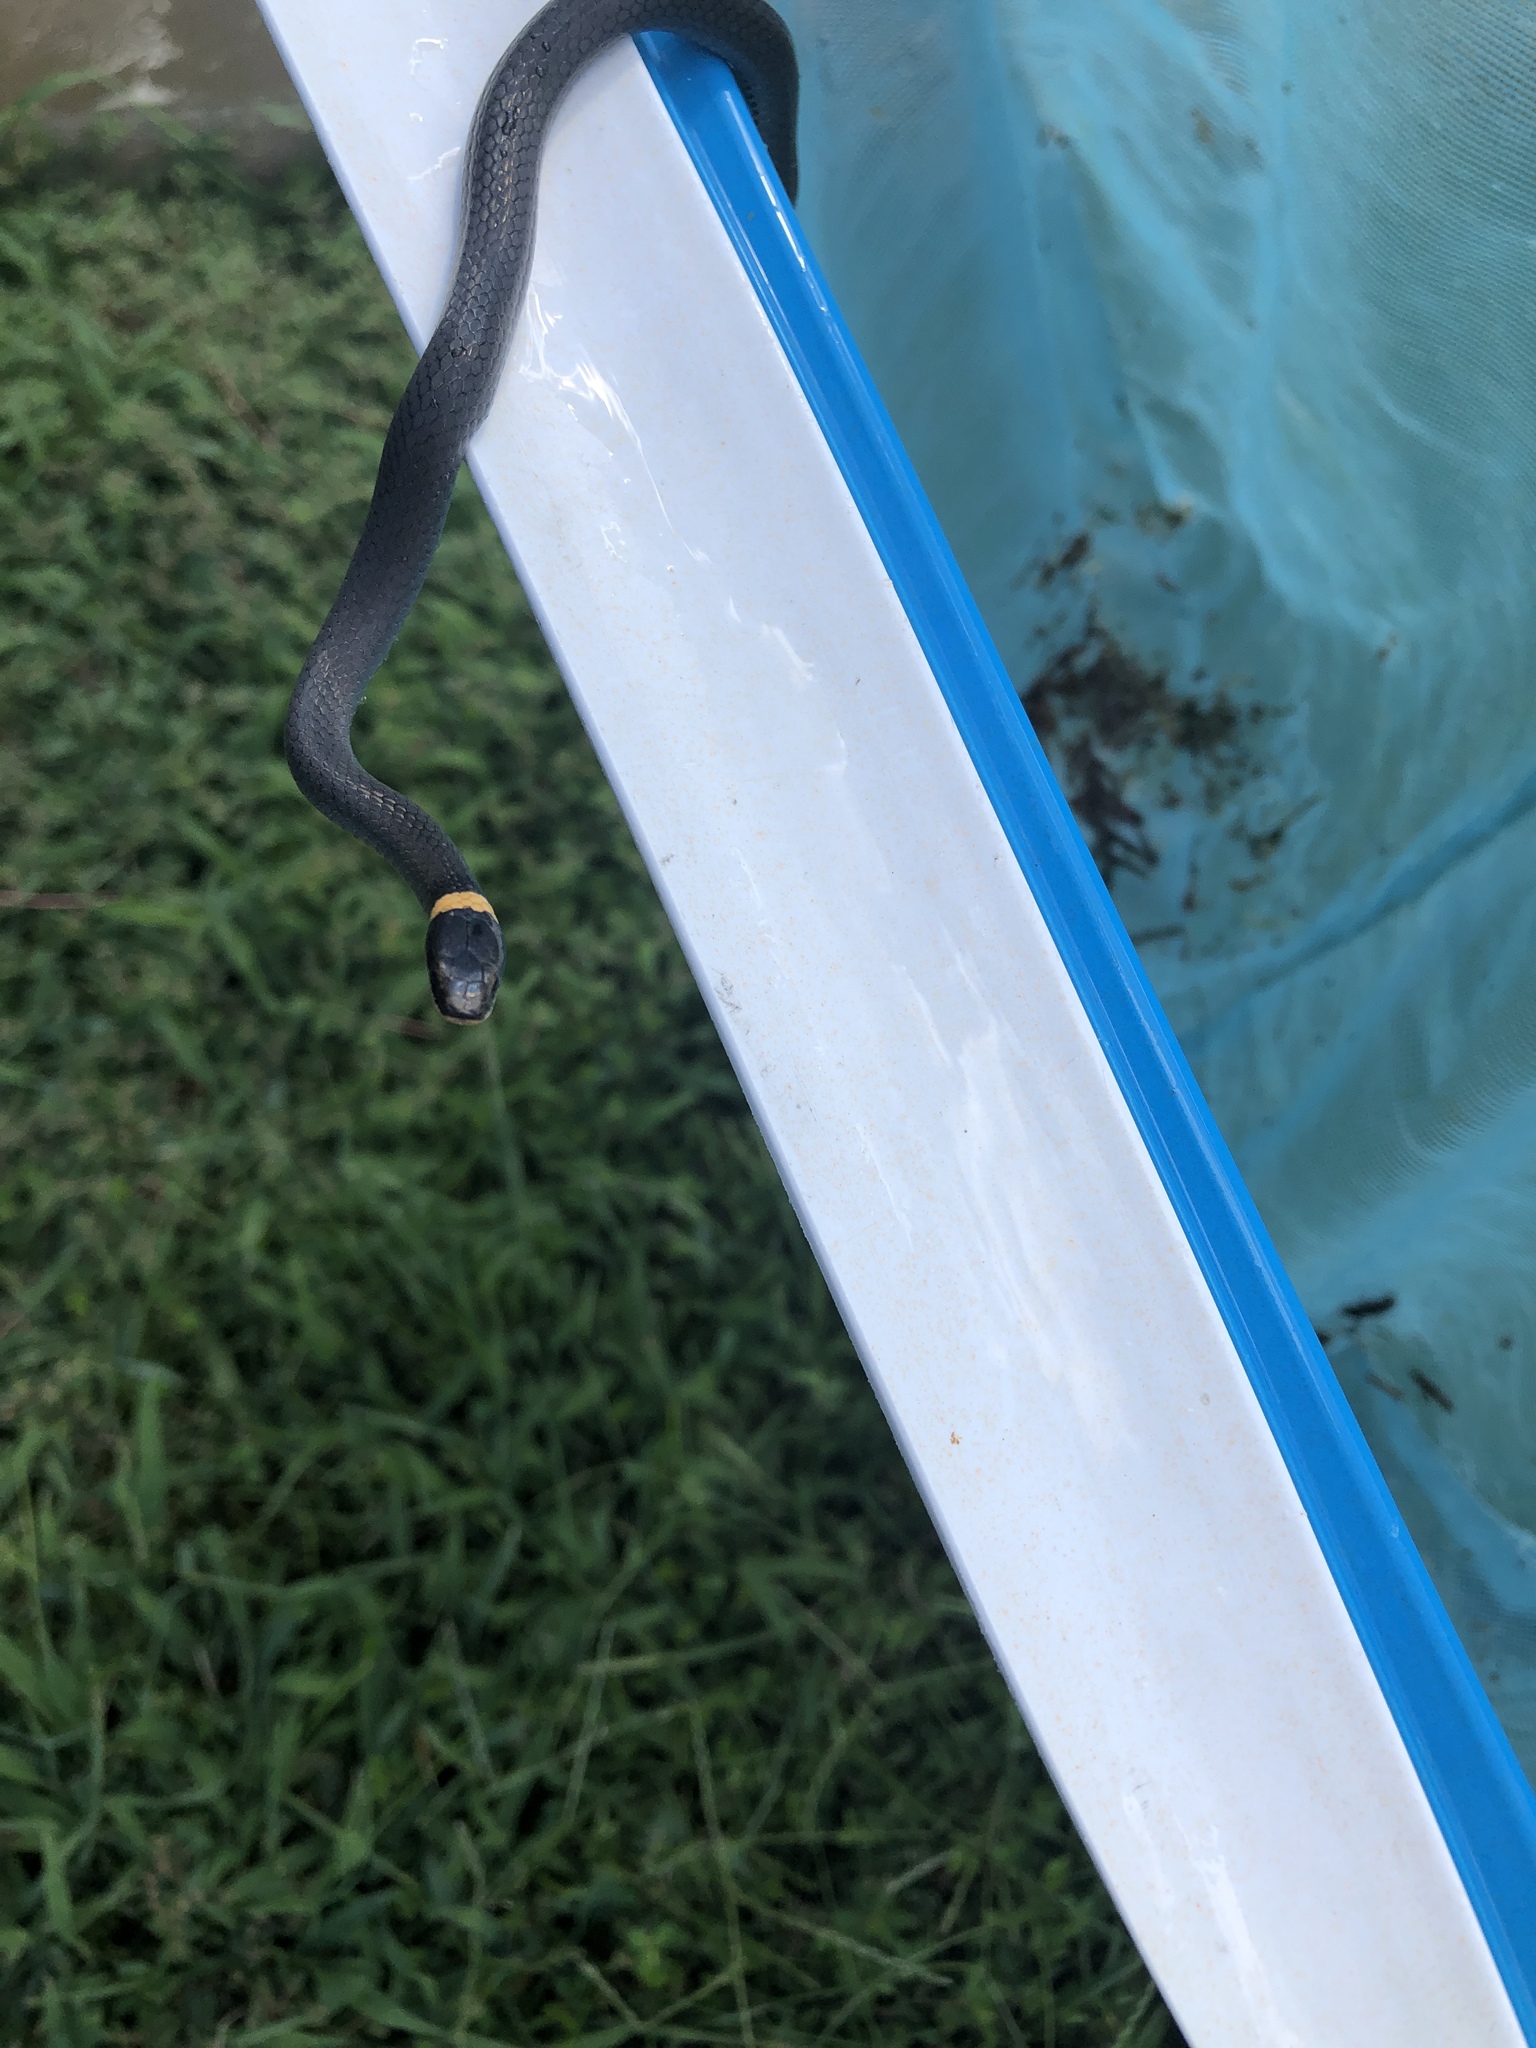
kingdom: Animalia
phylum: Chordata
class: Squamata
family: Colubridae
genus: Diadophis
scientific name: Diadophis punctatus
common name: Ringneck snake
